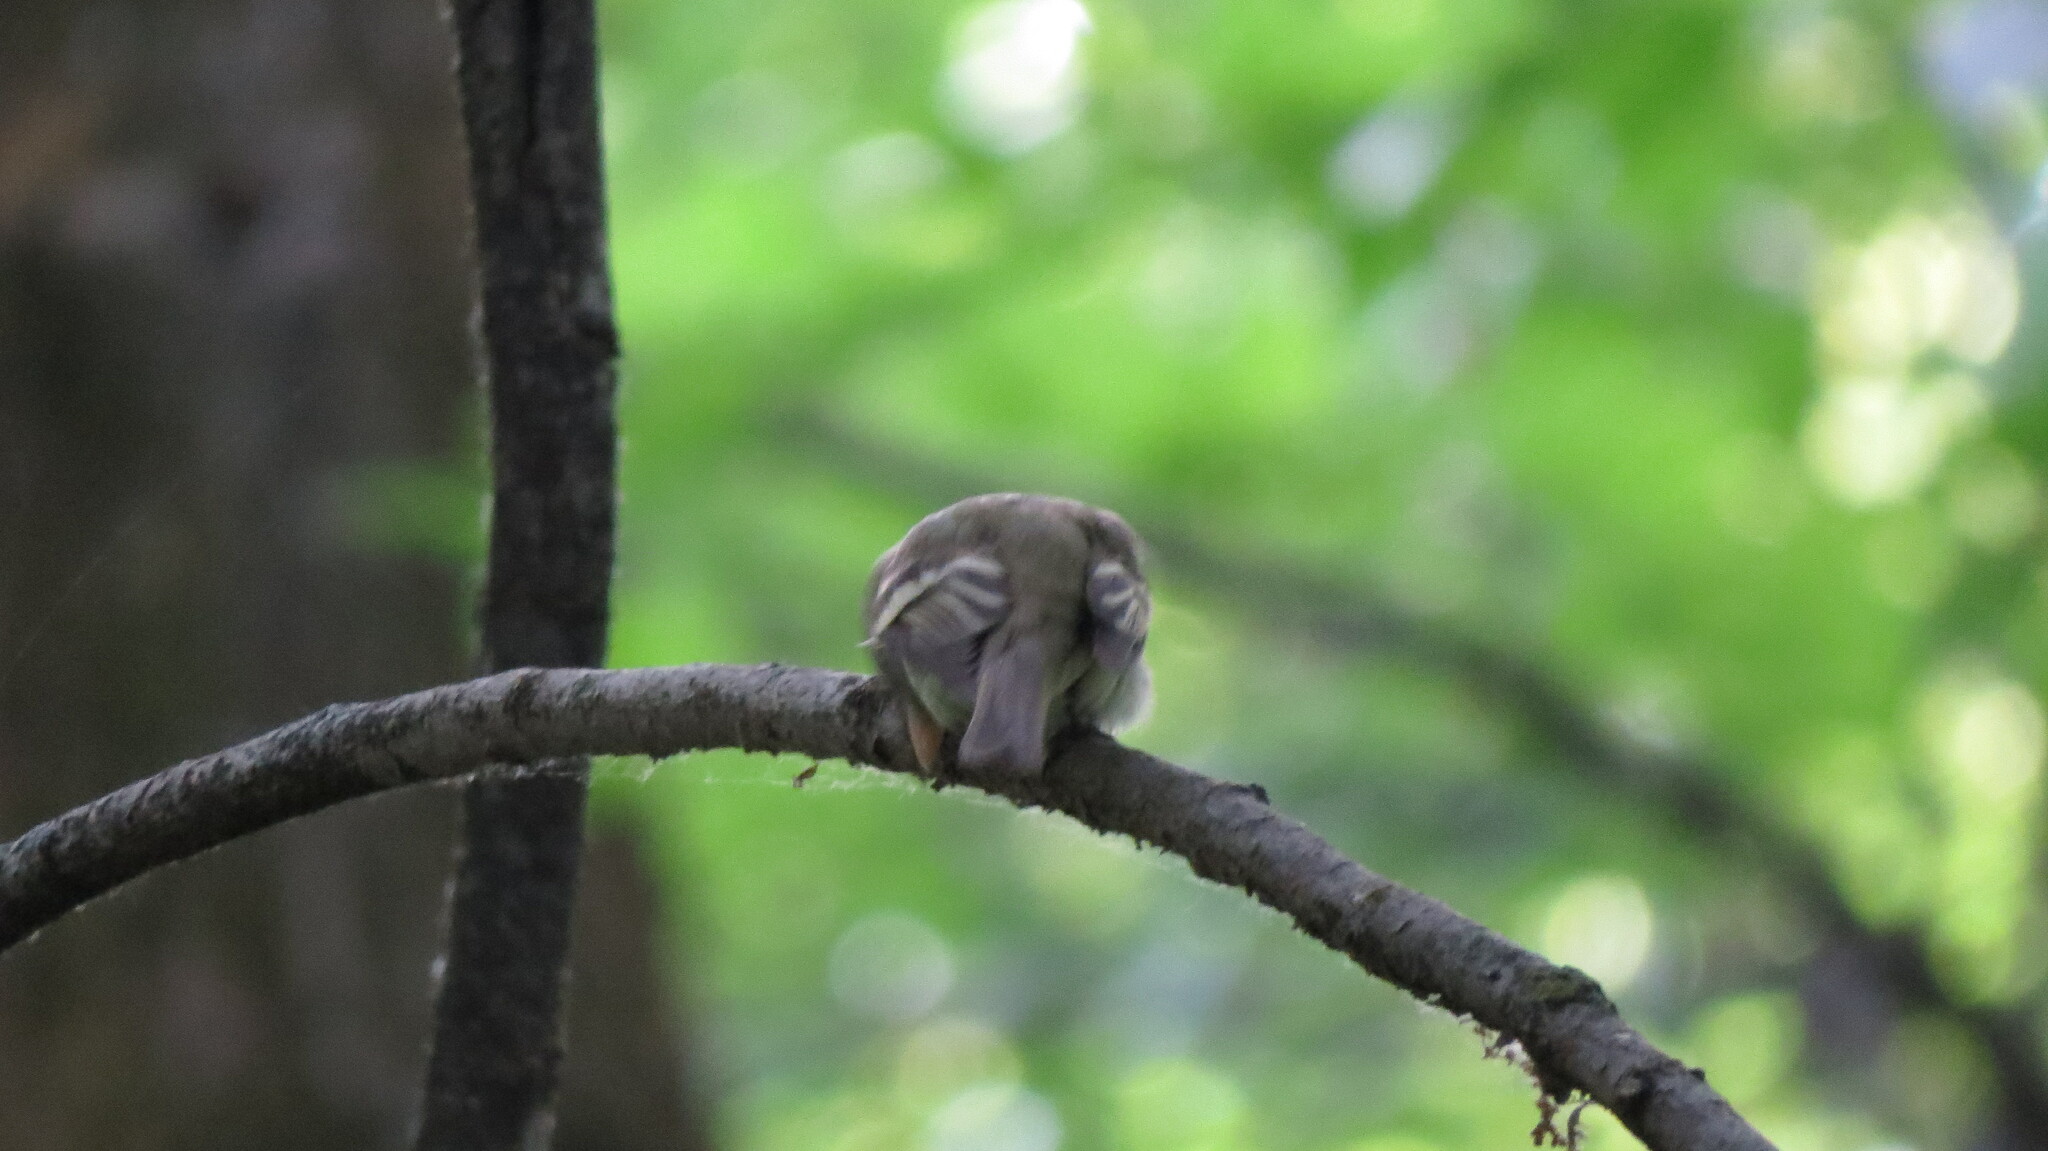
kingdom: Animalia
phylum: Chordata
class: Aves
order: Passeriformes
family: Tyrannidae
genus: Empidonax
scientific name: Empidonax virescens
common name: Acadian flycatcher
